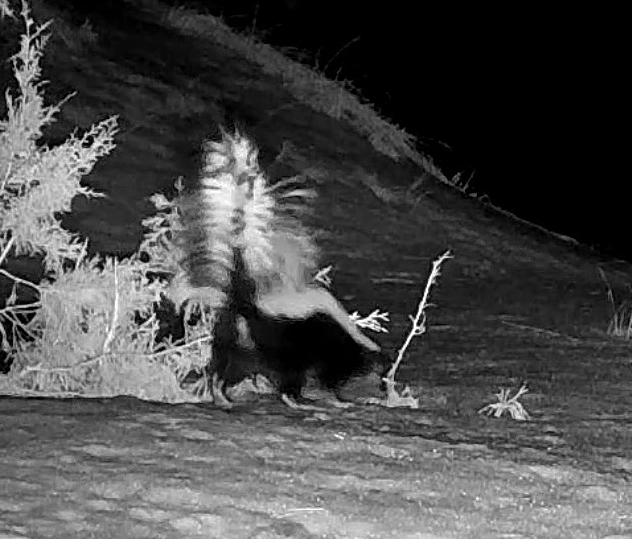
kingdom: Animalia
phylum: Chordata
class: Mammalia
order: Carnivora
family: Mephitidae
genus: Mephitis
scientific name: Mephitis mephitis
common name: Striped skunk
